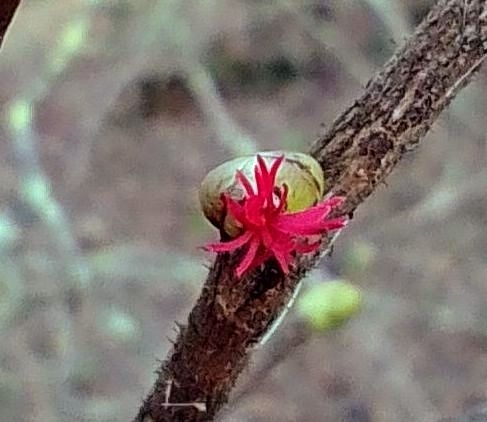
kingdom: Plantae
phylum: Tracheophyta
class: Magnoliopsida
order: Fagales
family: Betulaceae
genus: Corylus
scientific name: Corylus avellana
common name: European hazel
